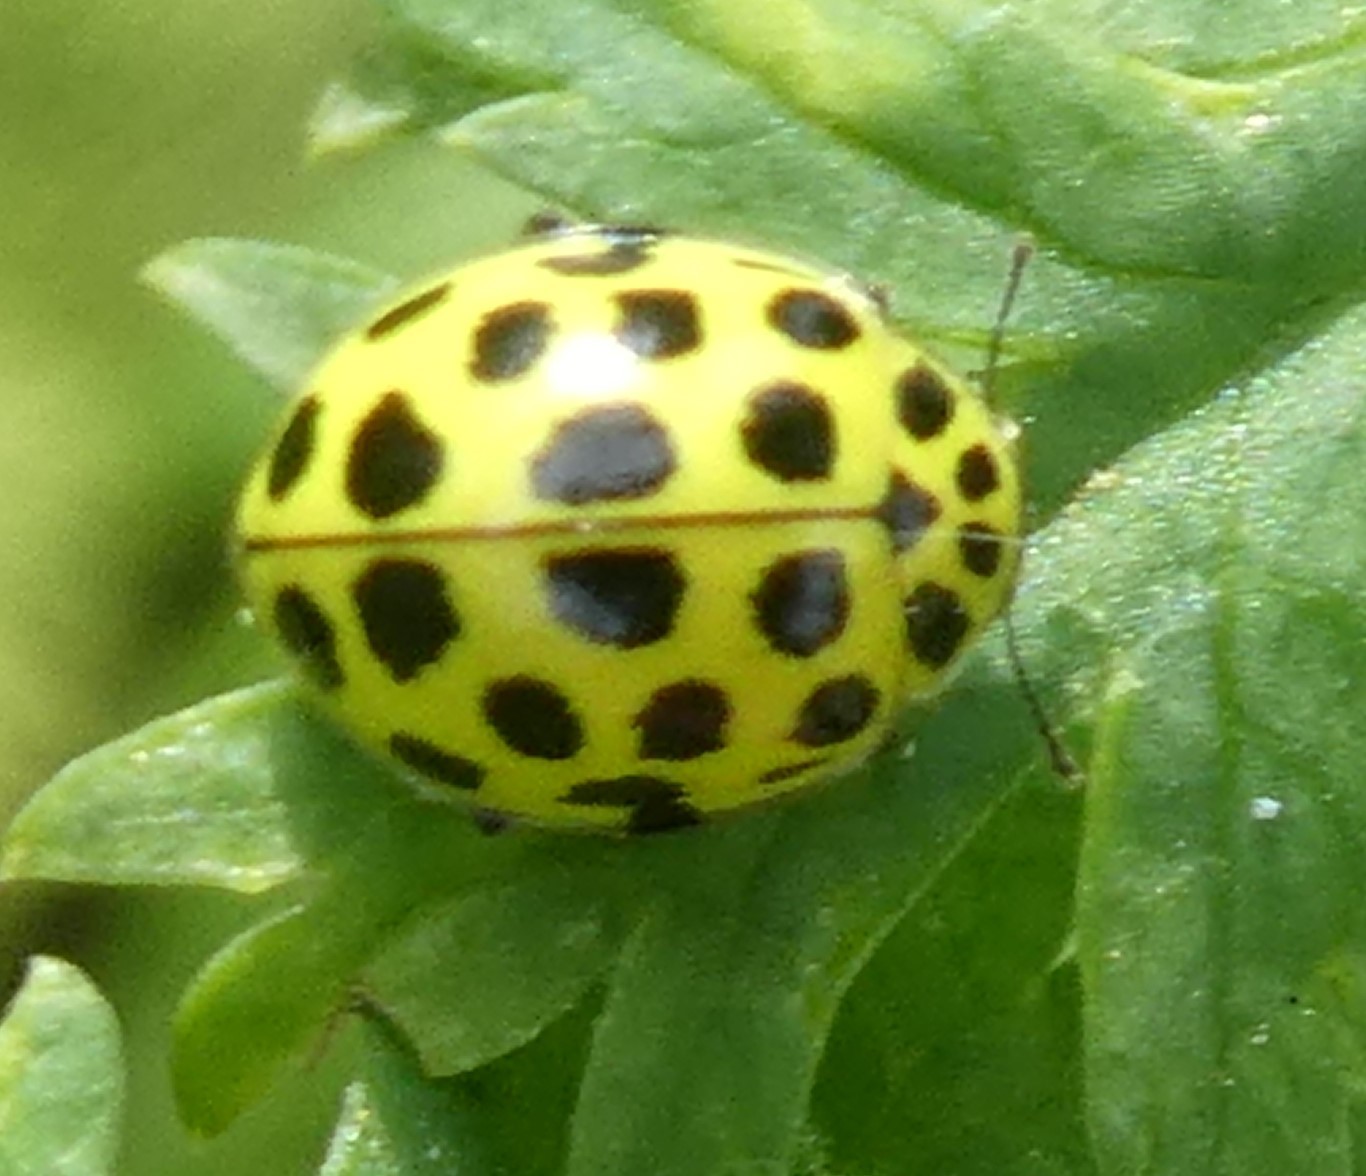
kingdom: Animalia
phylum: Arthropoda
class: Insecta
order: Coleoptera
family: Coccinellidae
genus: Psyllobora
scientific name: Psyllobora vigintiduopunctata
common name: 22-spot ladybird
